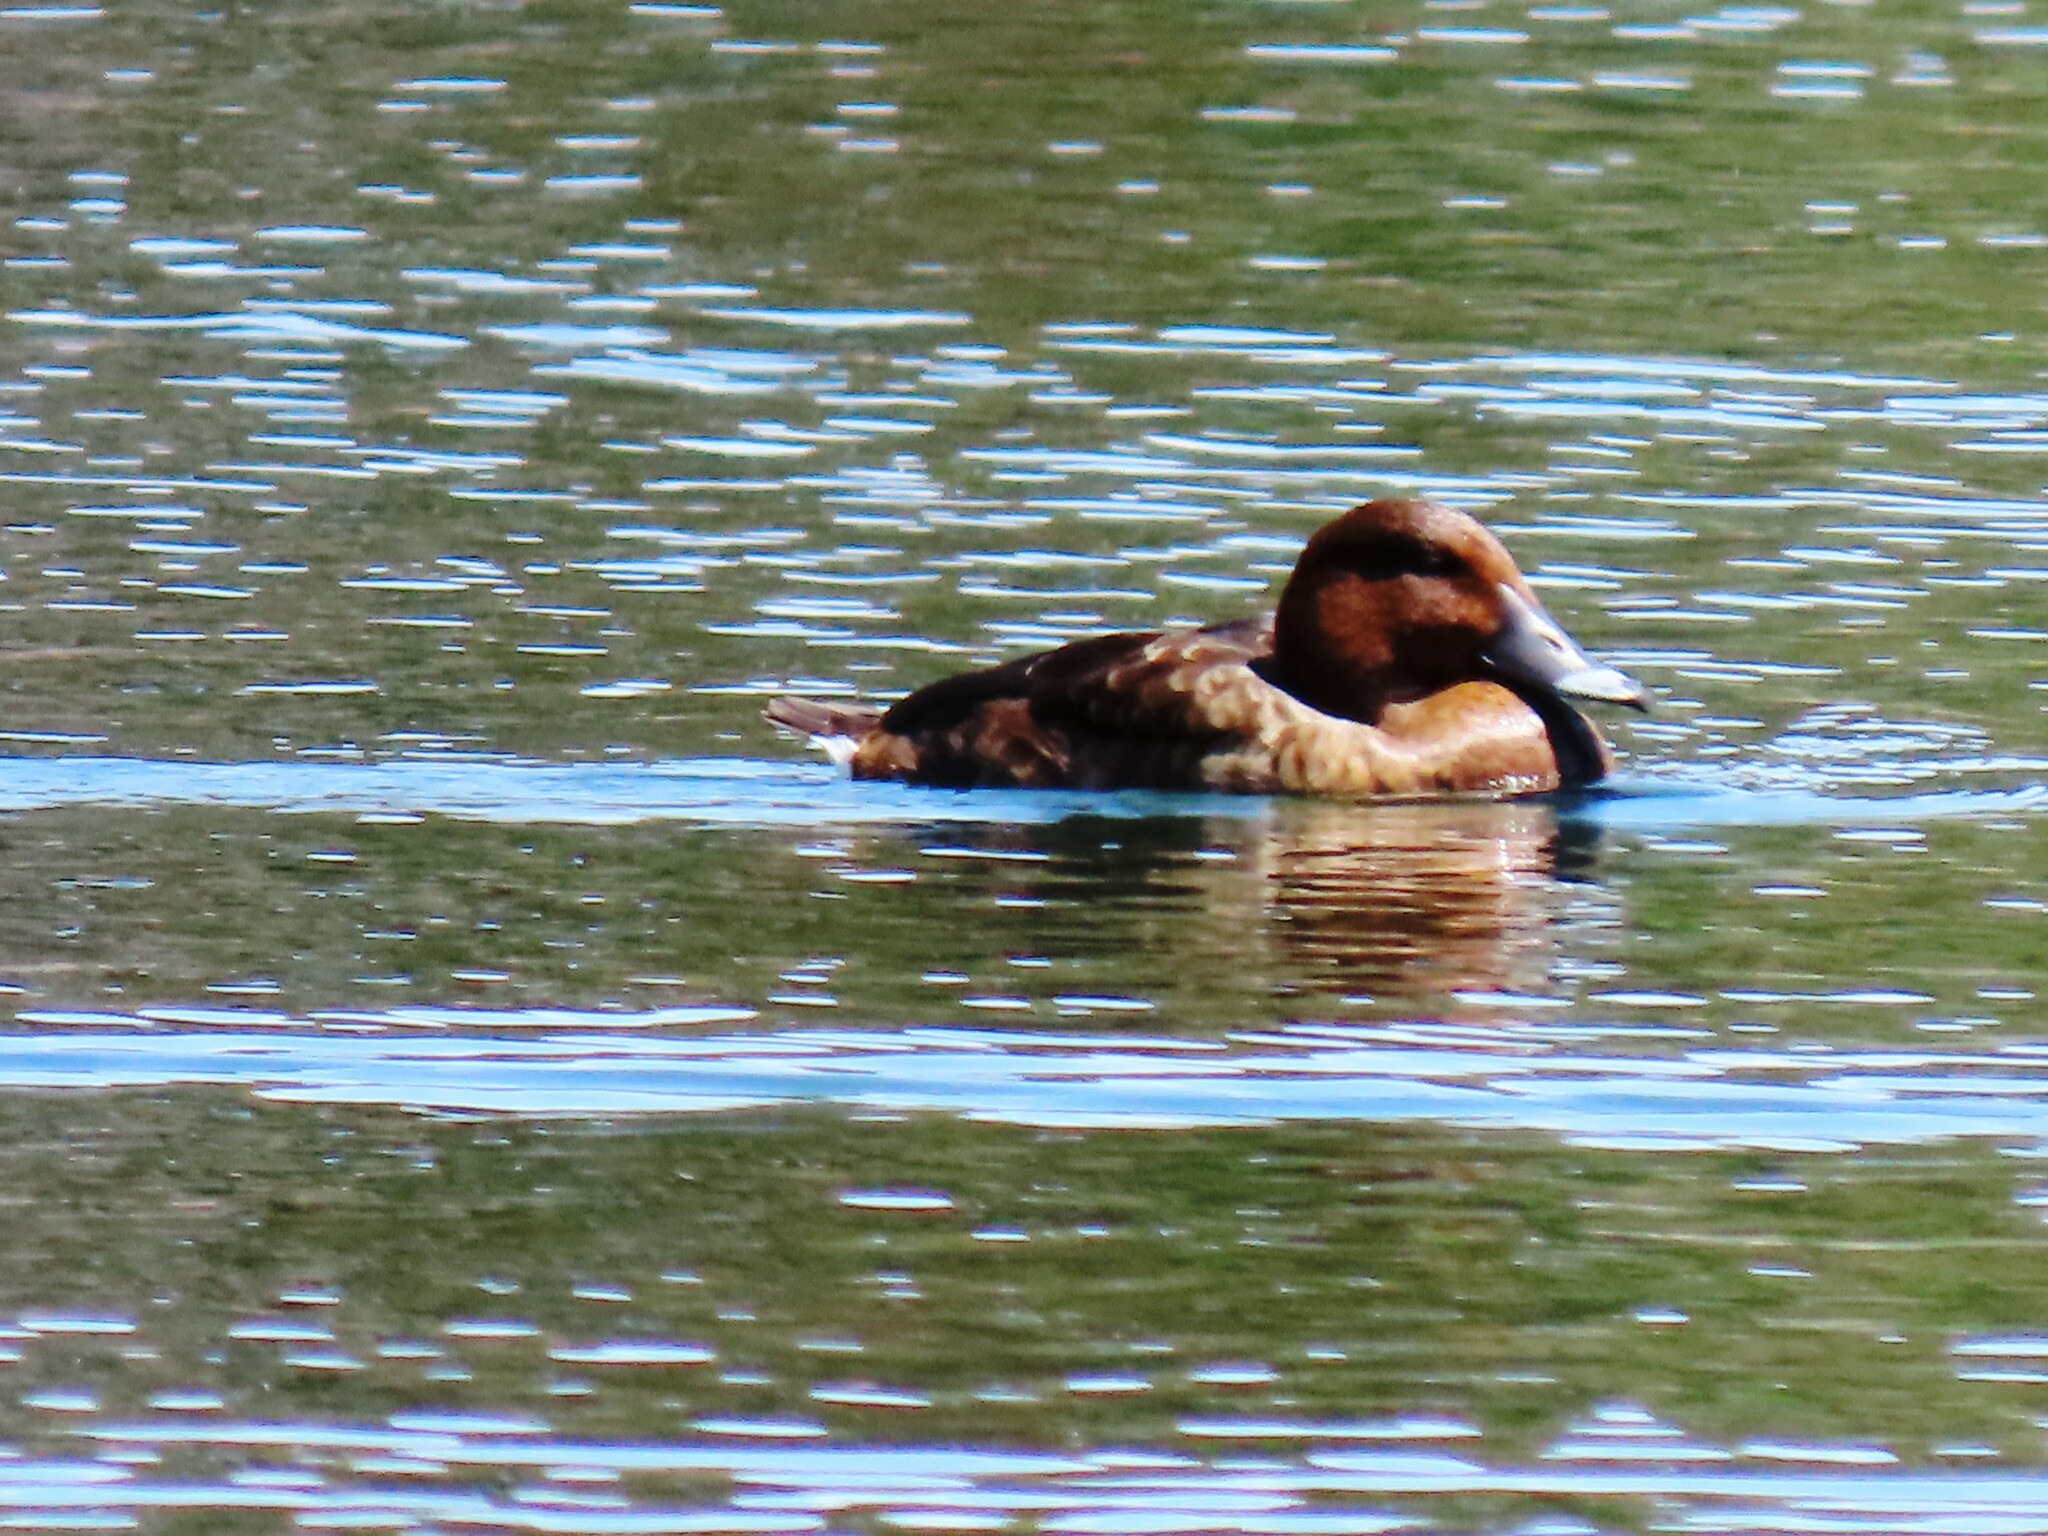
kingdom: Animalia
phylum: Chordata
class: Aves
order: Anseriformes
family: Anatidae
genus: Aythya
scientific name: Aythya australis
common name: Hardhead
